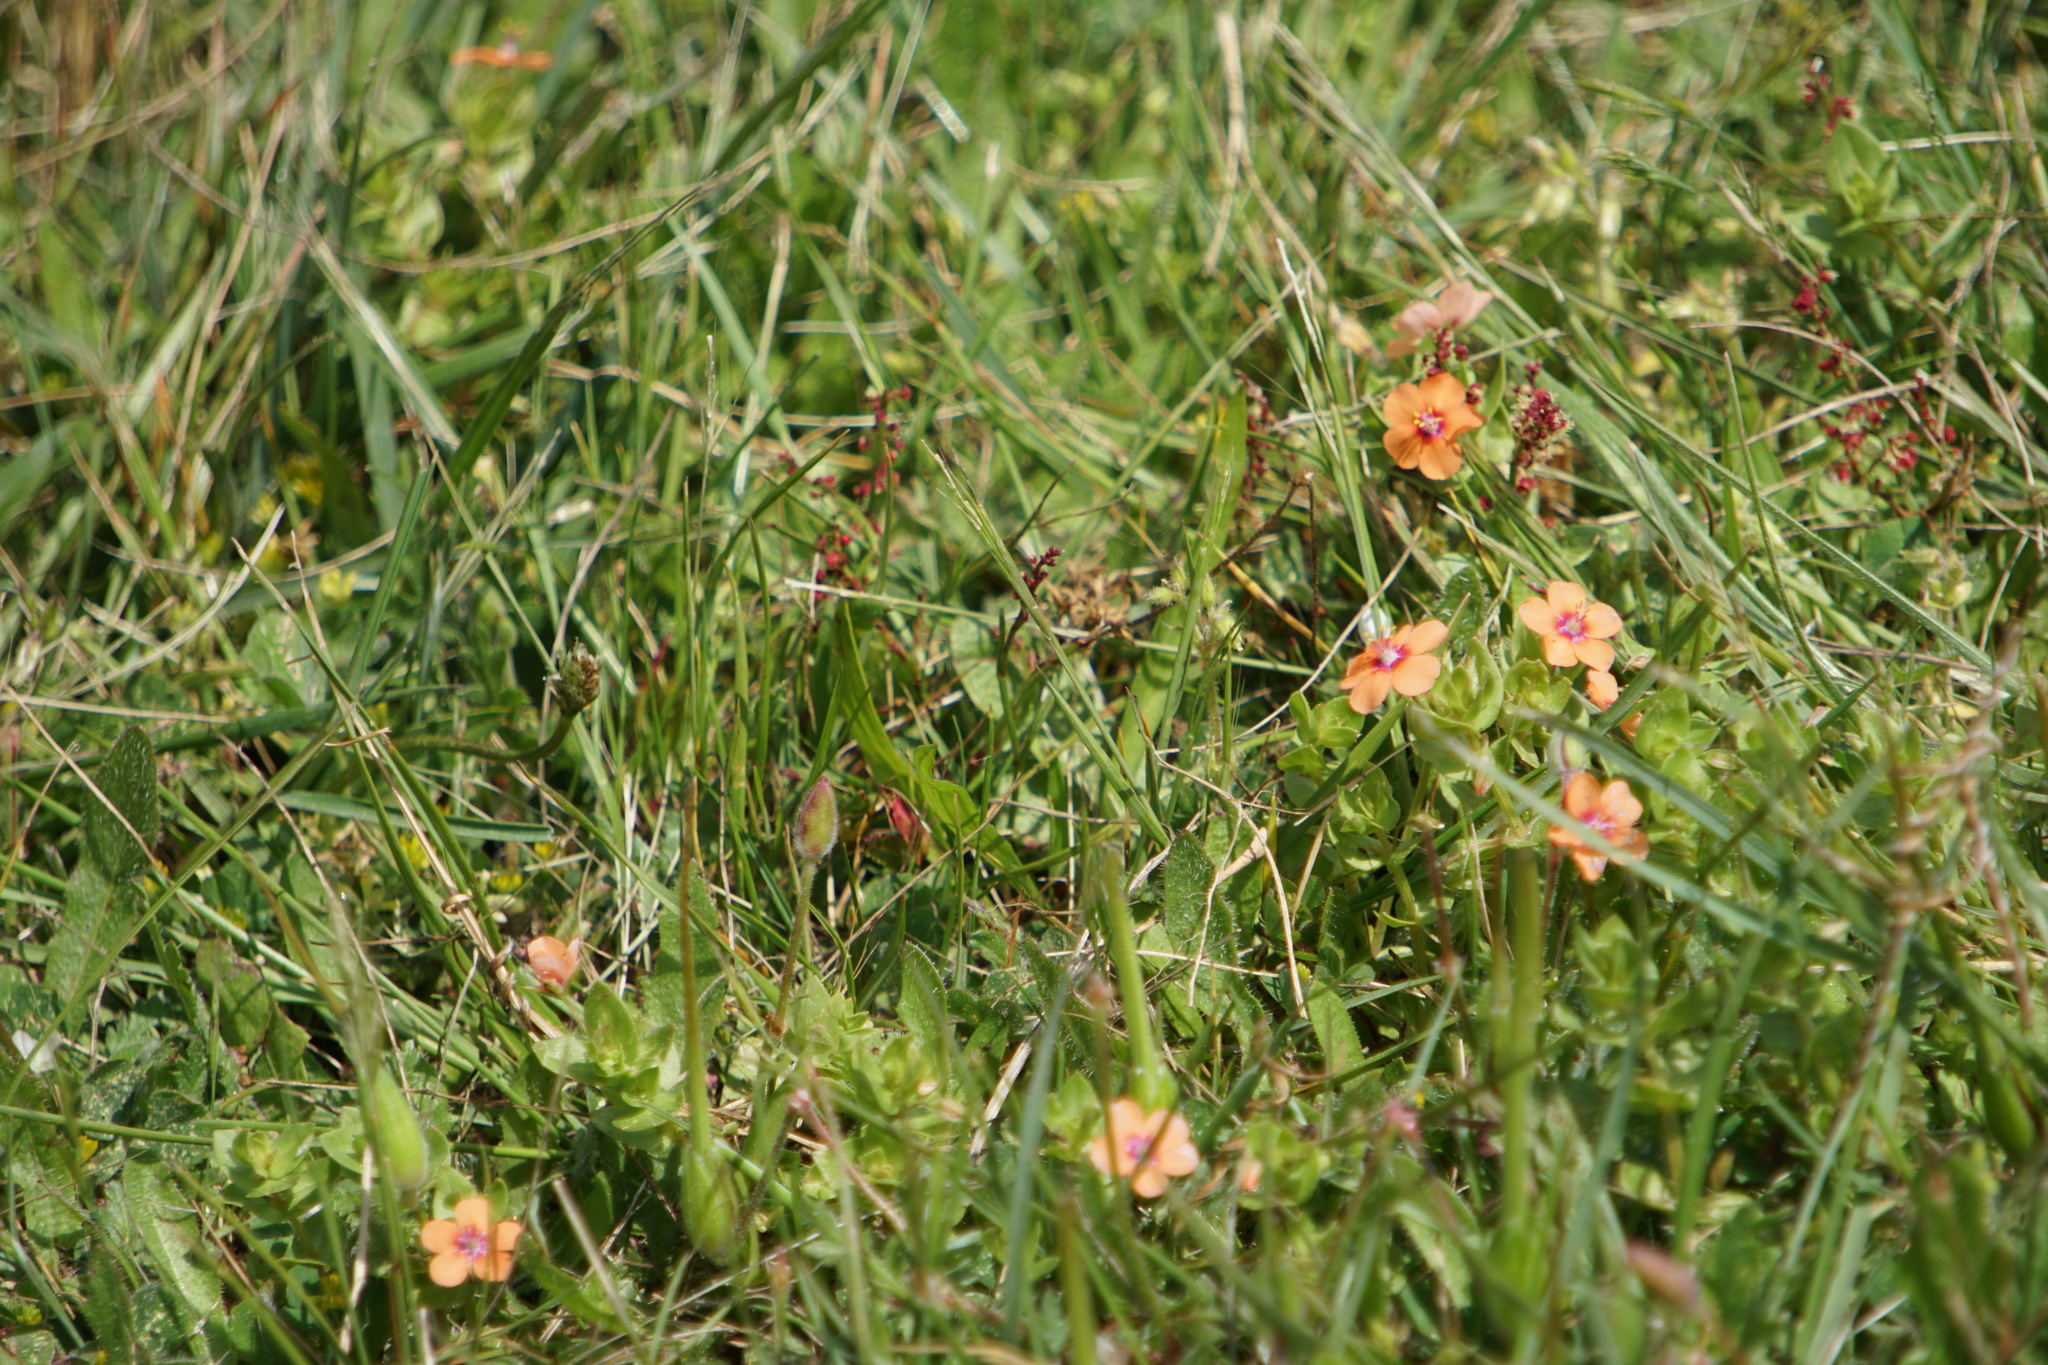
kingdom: Plantae
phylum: Tracheophyta
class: Magnoliopsida
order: Ericales
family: Primulaceae
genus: Lysimachia
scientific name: Lysimachia arvensis
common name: Scarlet pimpernel
